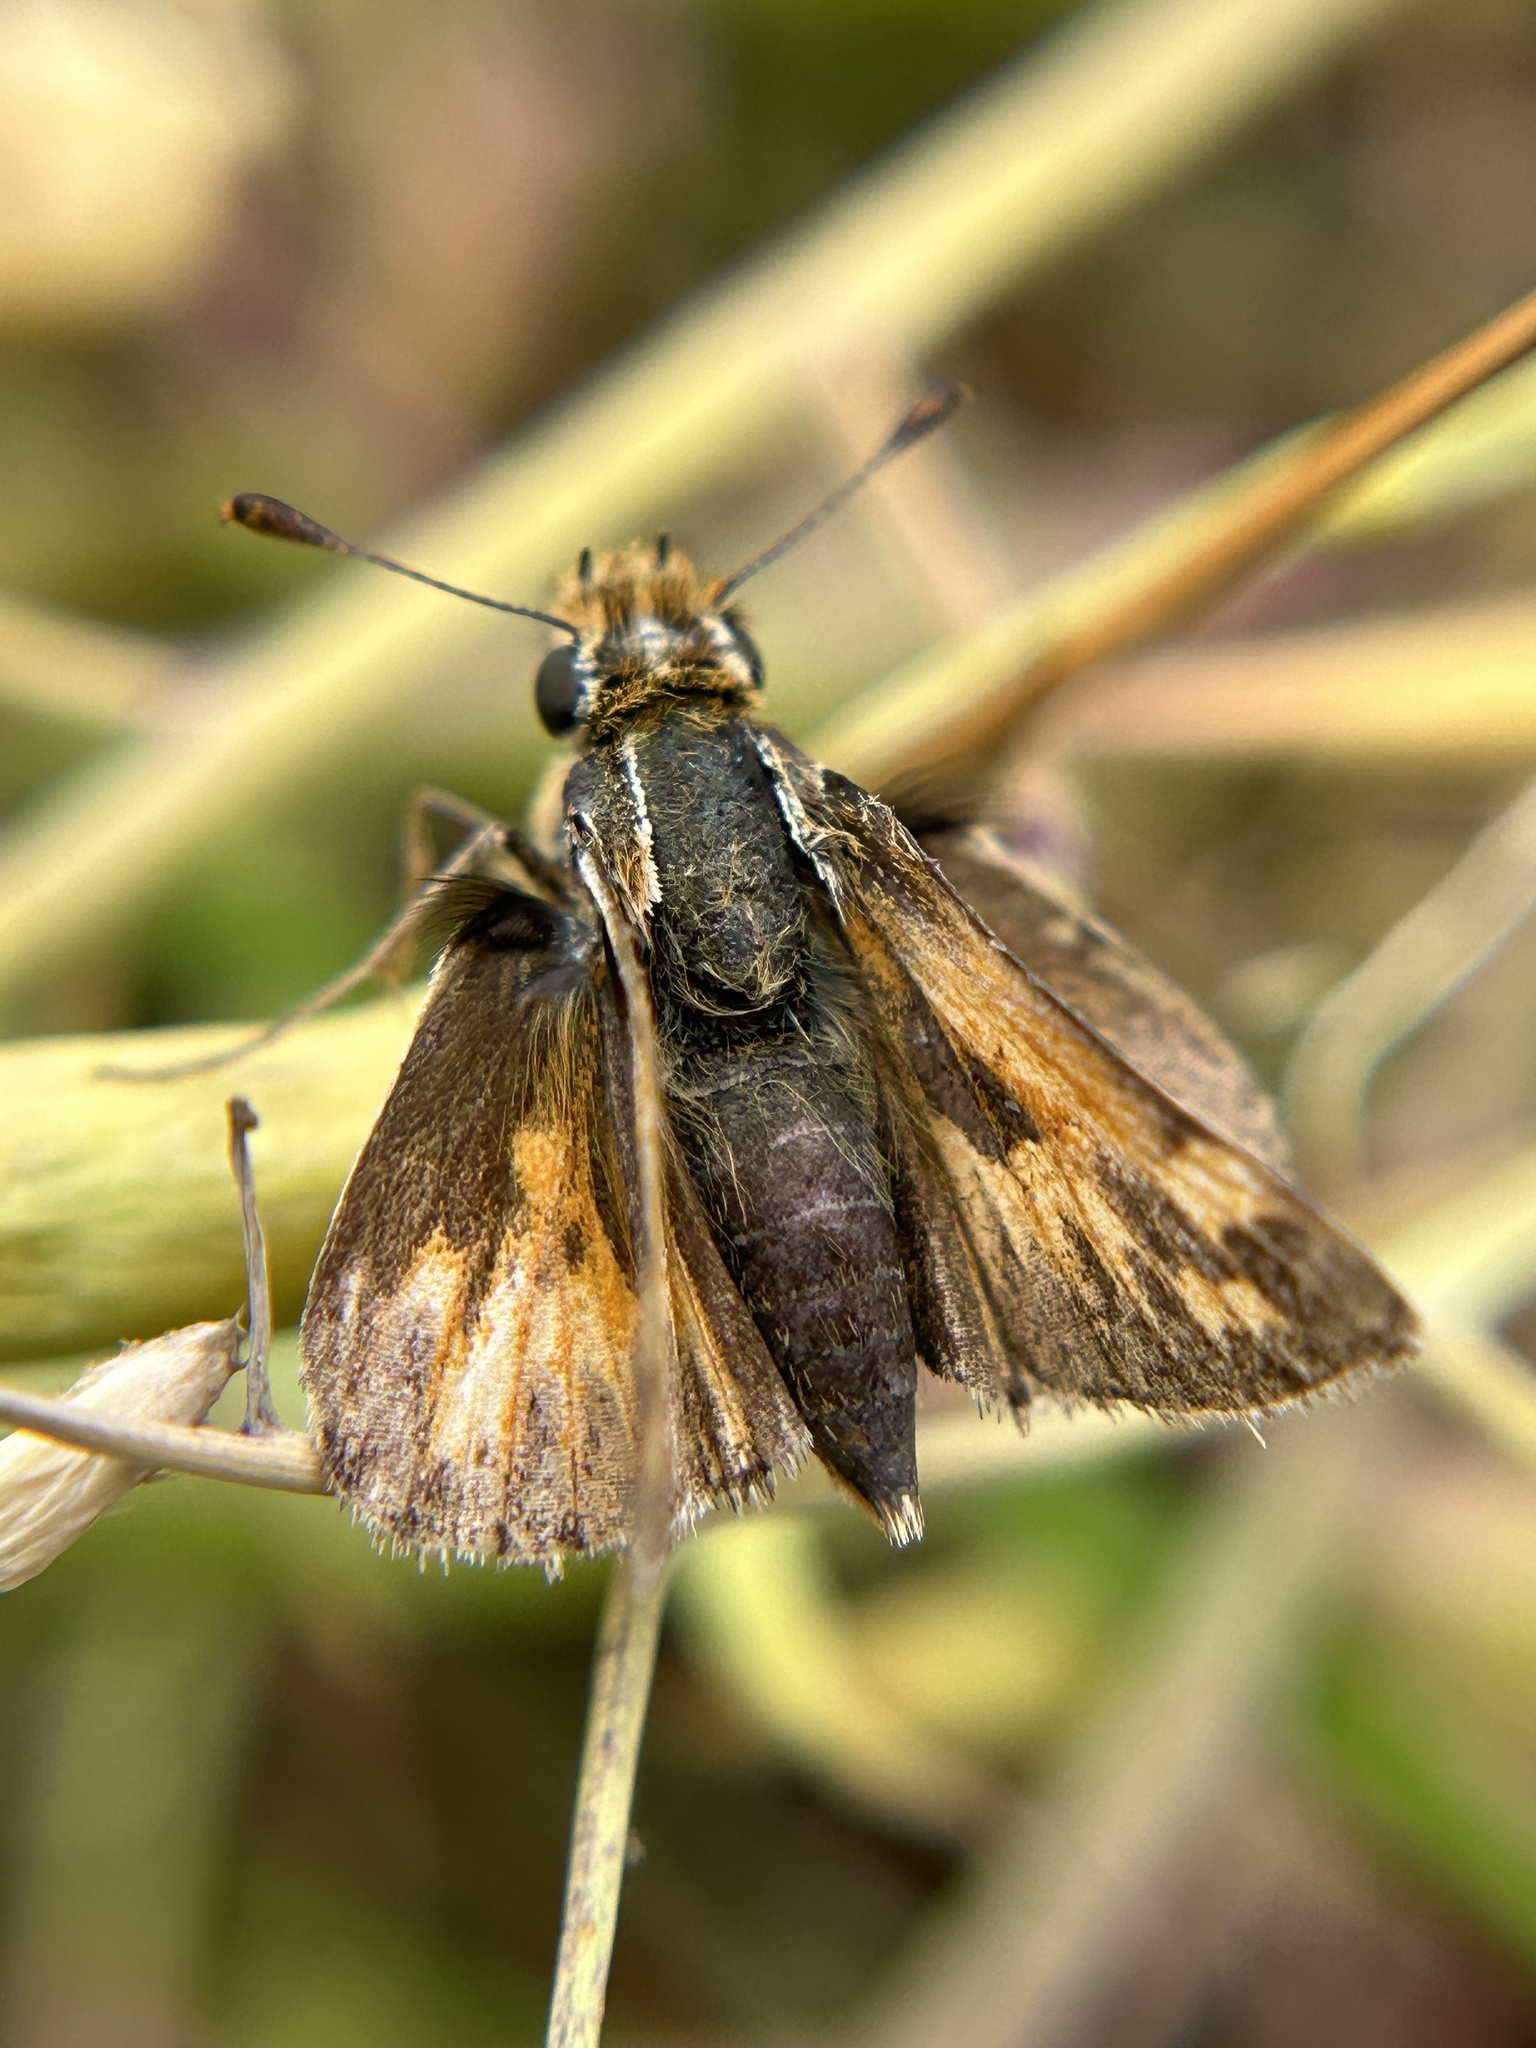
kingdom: Animalia
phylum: Arthropoda
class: Insecta
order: Lepidoptera
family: Hesperiidae
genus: Polites
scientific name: Polites sabuleti
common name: Sandhill skipper
